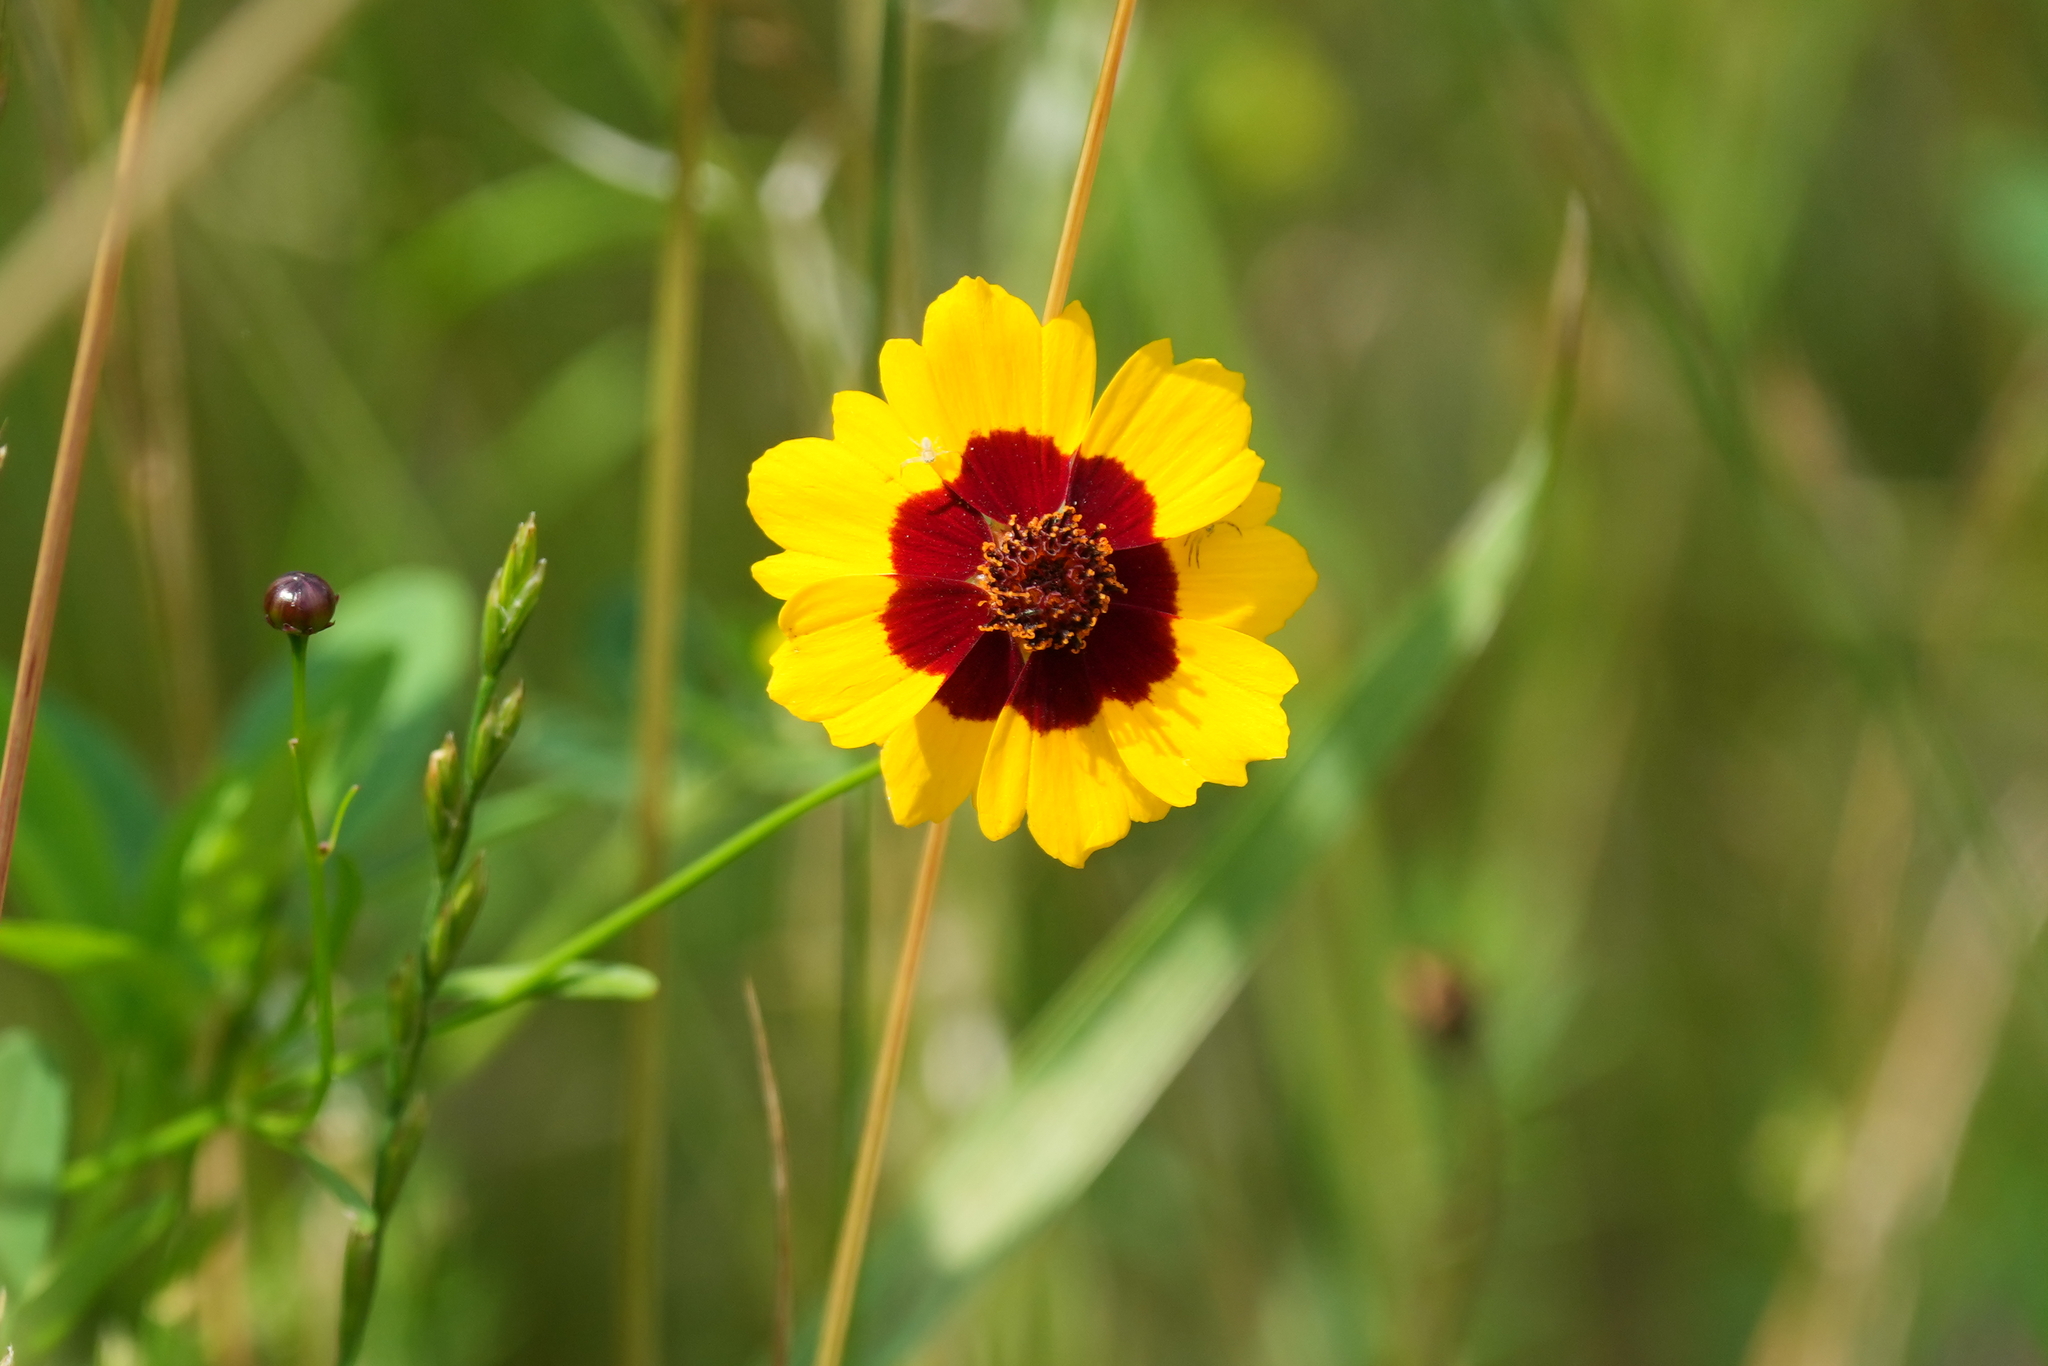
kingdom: Plantae
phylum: Tracheophyta
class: Magnoliopsida
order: Asterales
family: Asteraceae
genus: Coreopsis
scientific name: Coreopsis tinctoria
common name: Garden tickseed
